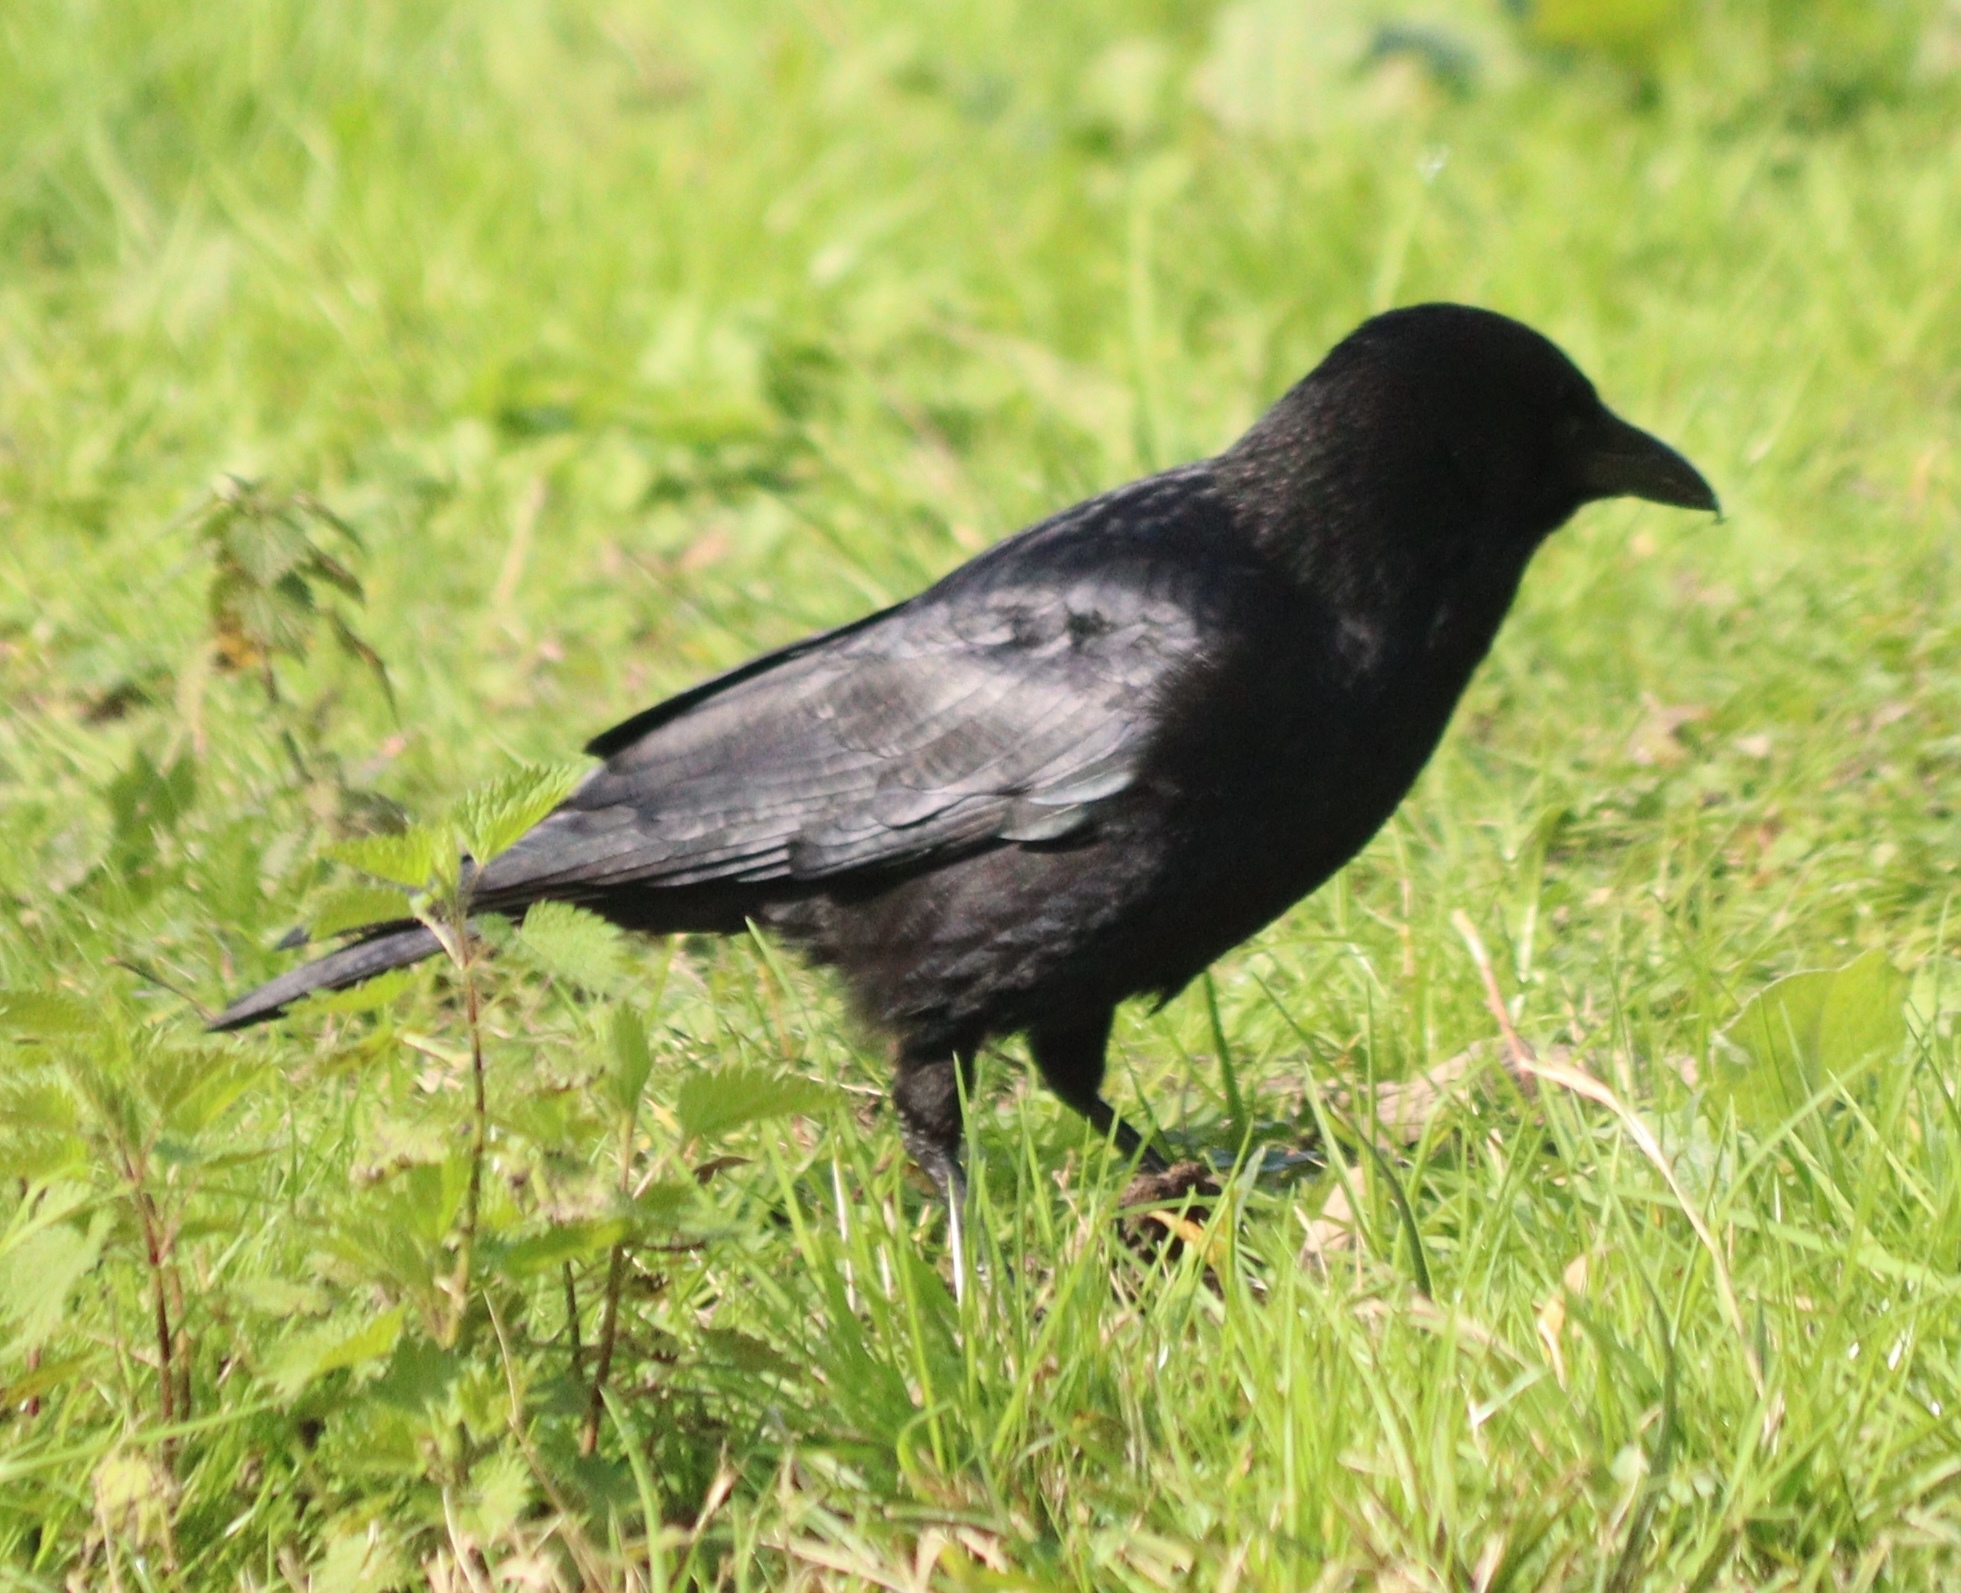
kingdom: Animalia
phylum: Chordata
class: Aves
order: Passeriformes
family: Corvidae
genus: Corvus
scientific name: Corvus corone
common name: Carrion crow
